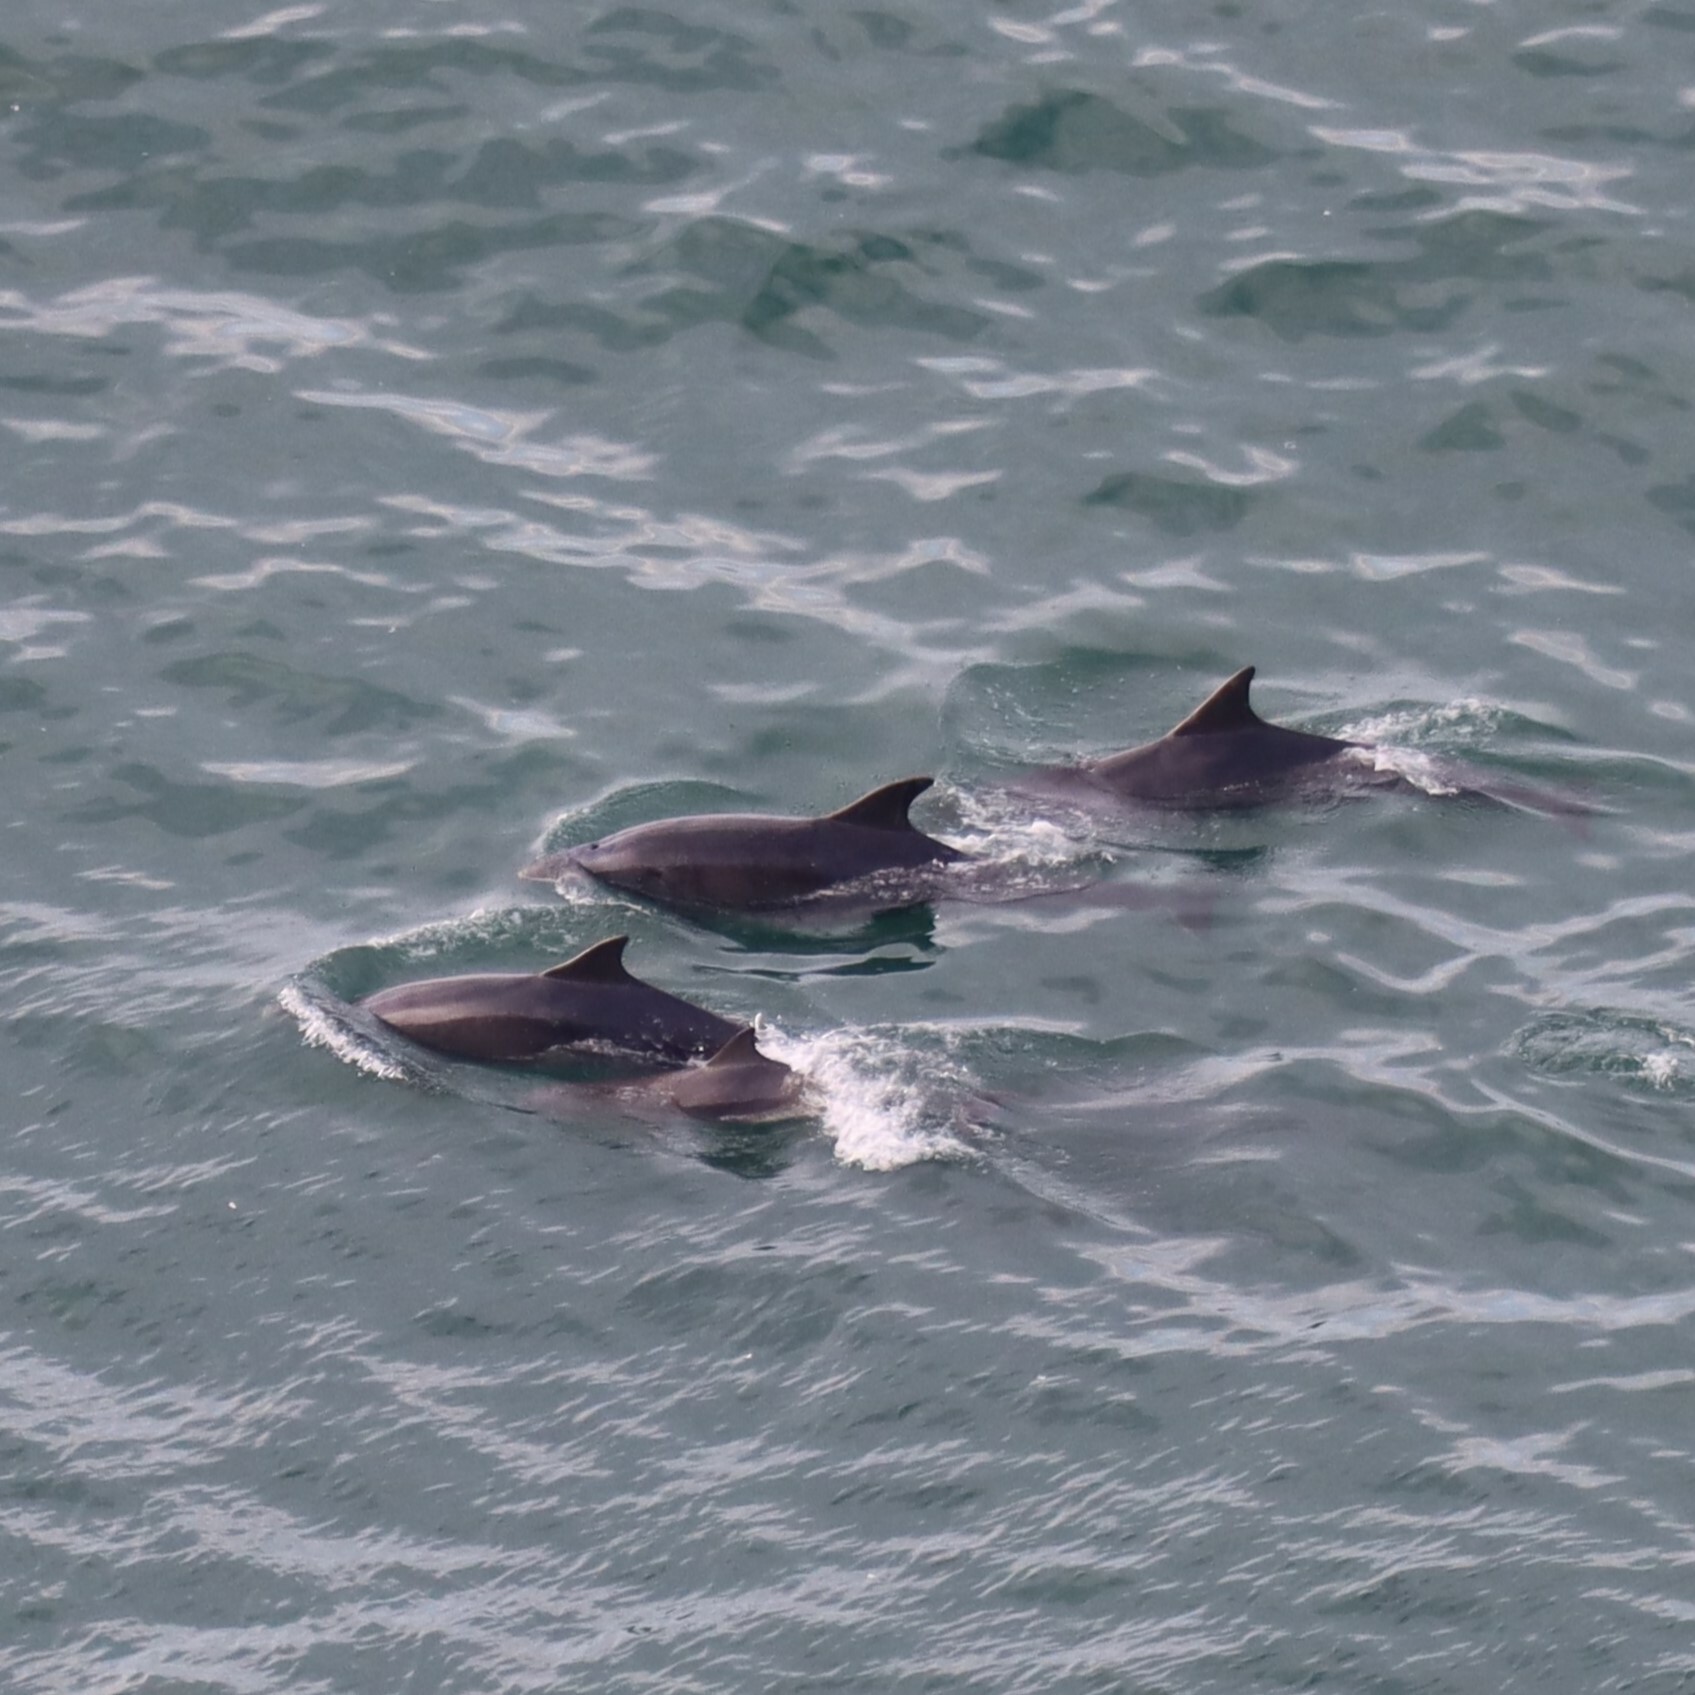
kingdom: Animalia
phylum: Chordata
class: Mammalia
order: Cetacea
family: Delphinidae
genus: Tursiops
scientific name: Tursiops truncatus
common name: Bottlenose dolphin
